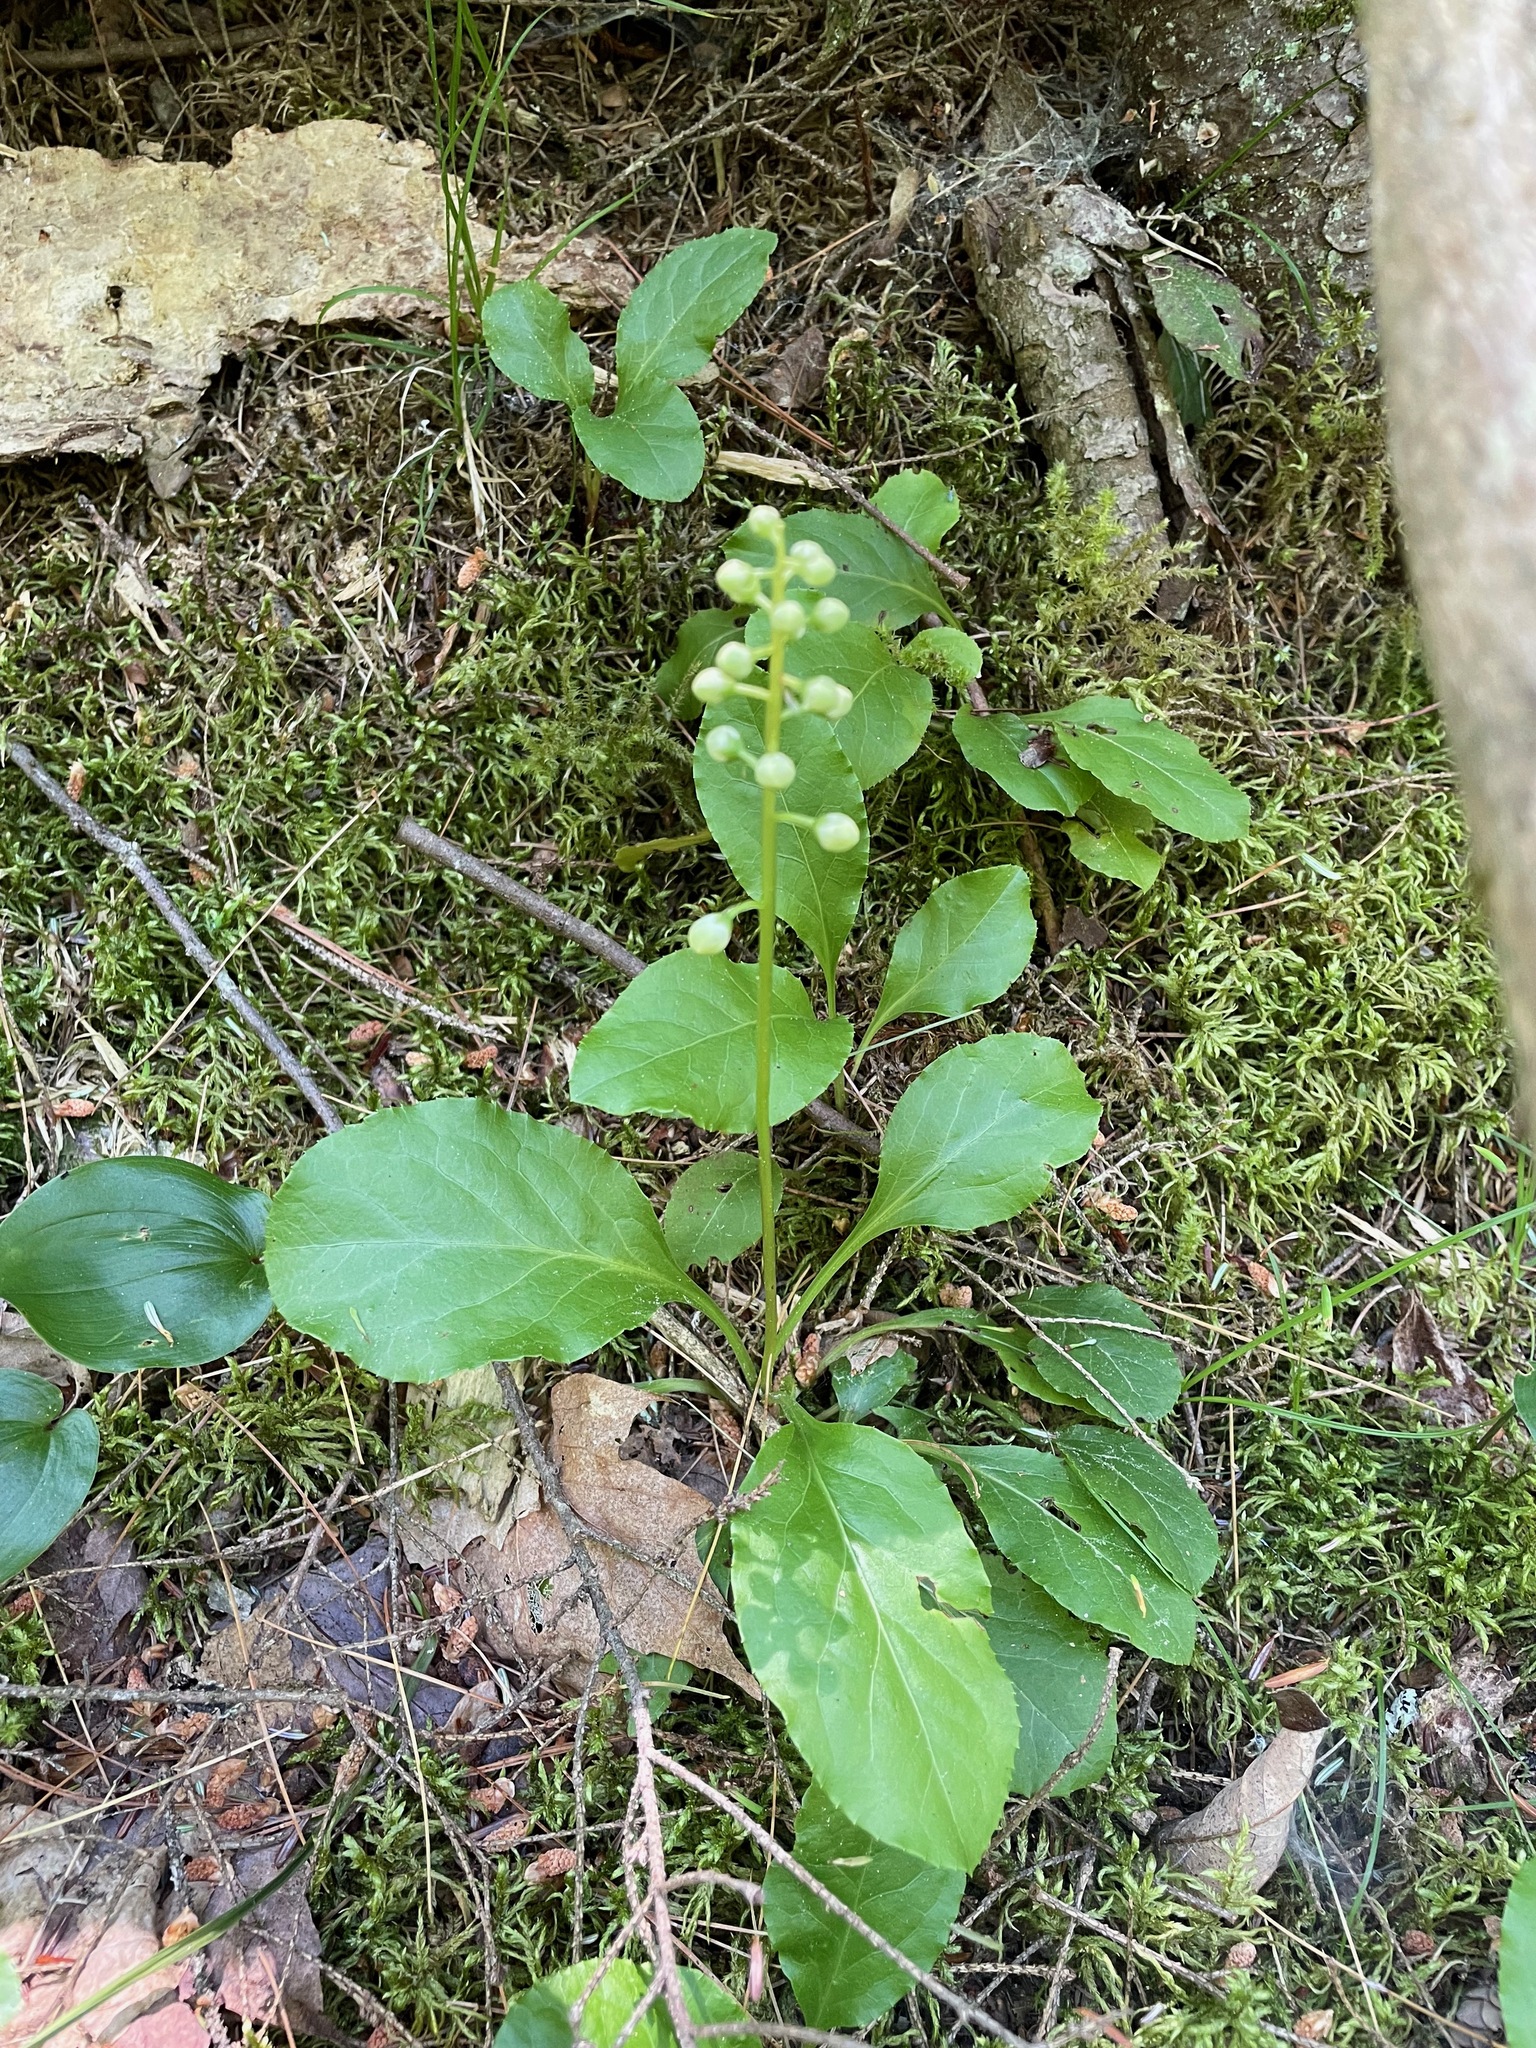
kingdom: Plantae
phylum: Tracheophyta
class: Magnoliopsida
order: Ericales
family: Ericaceae
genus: Pyrola
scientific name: Pyrola elliptica
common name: Shinleaf
